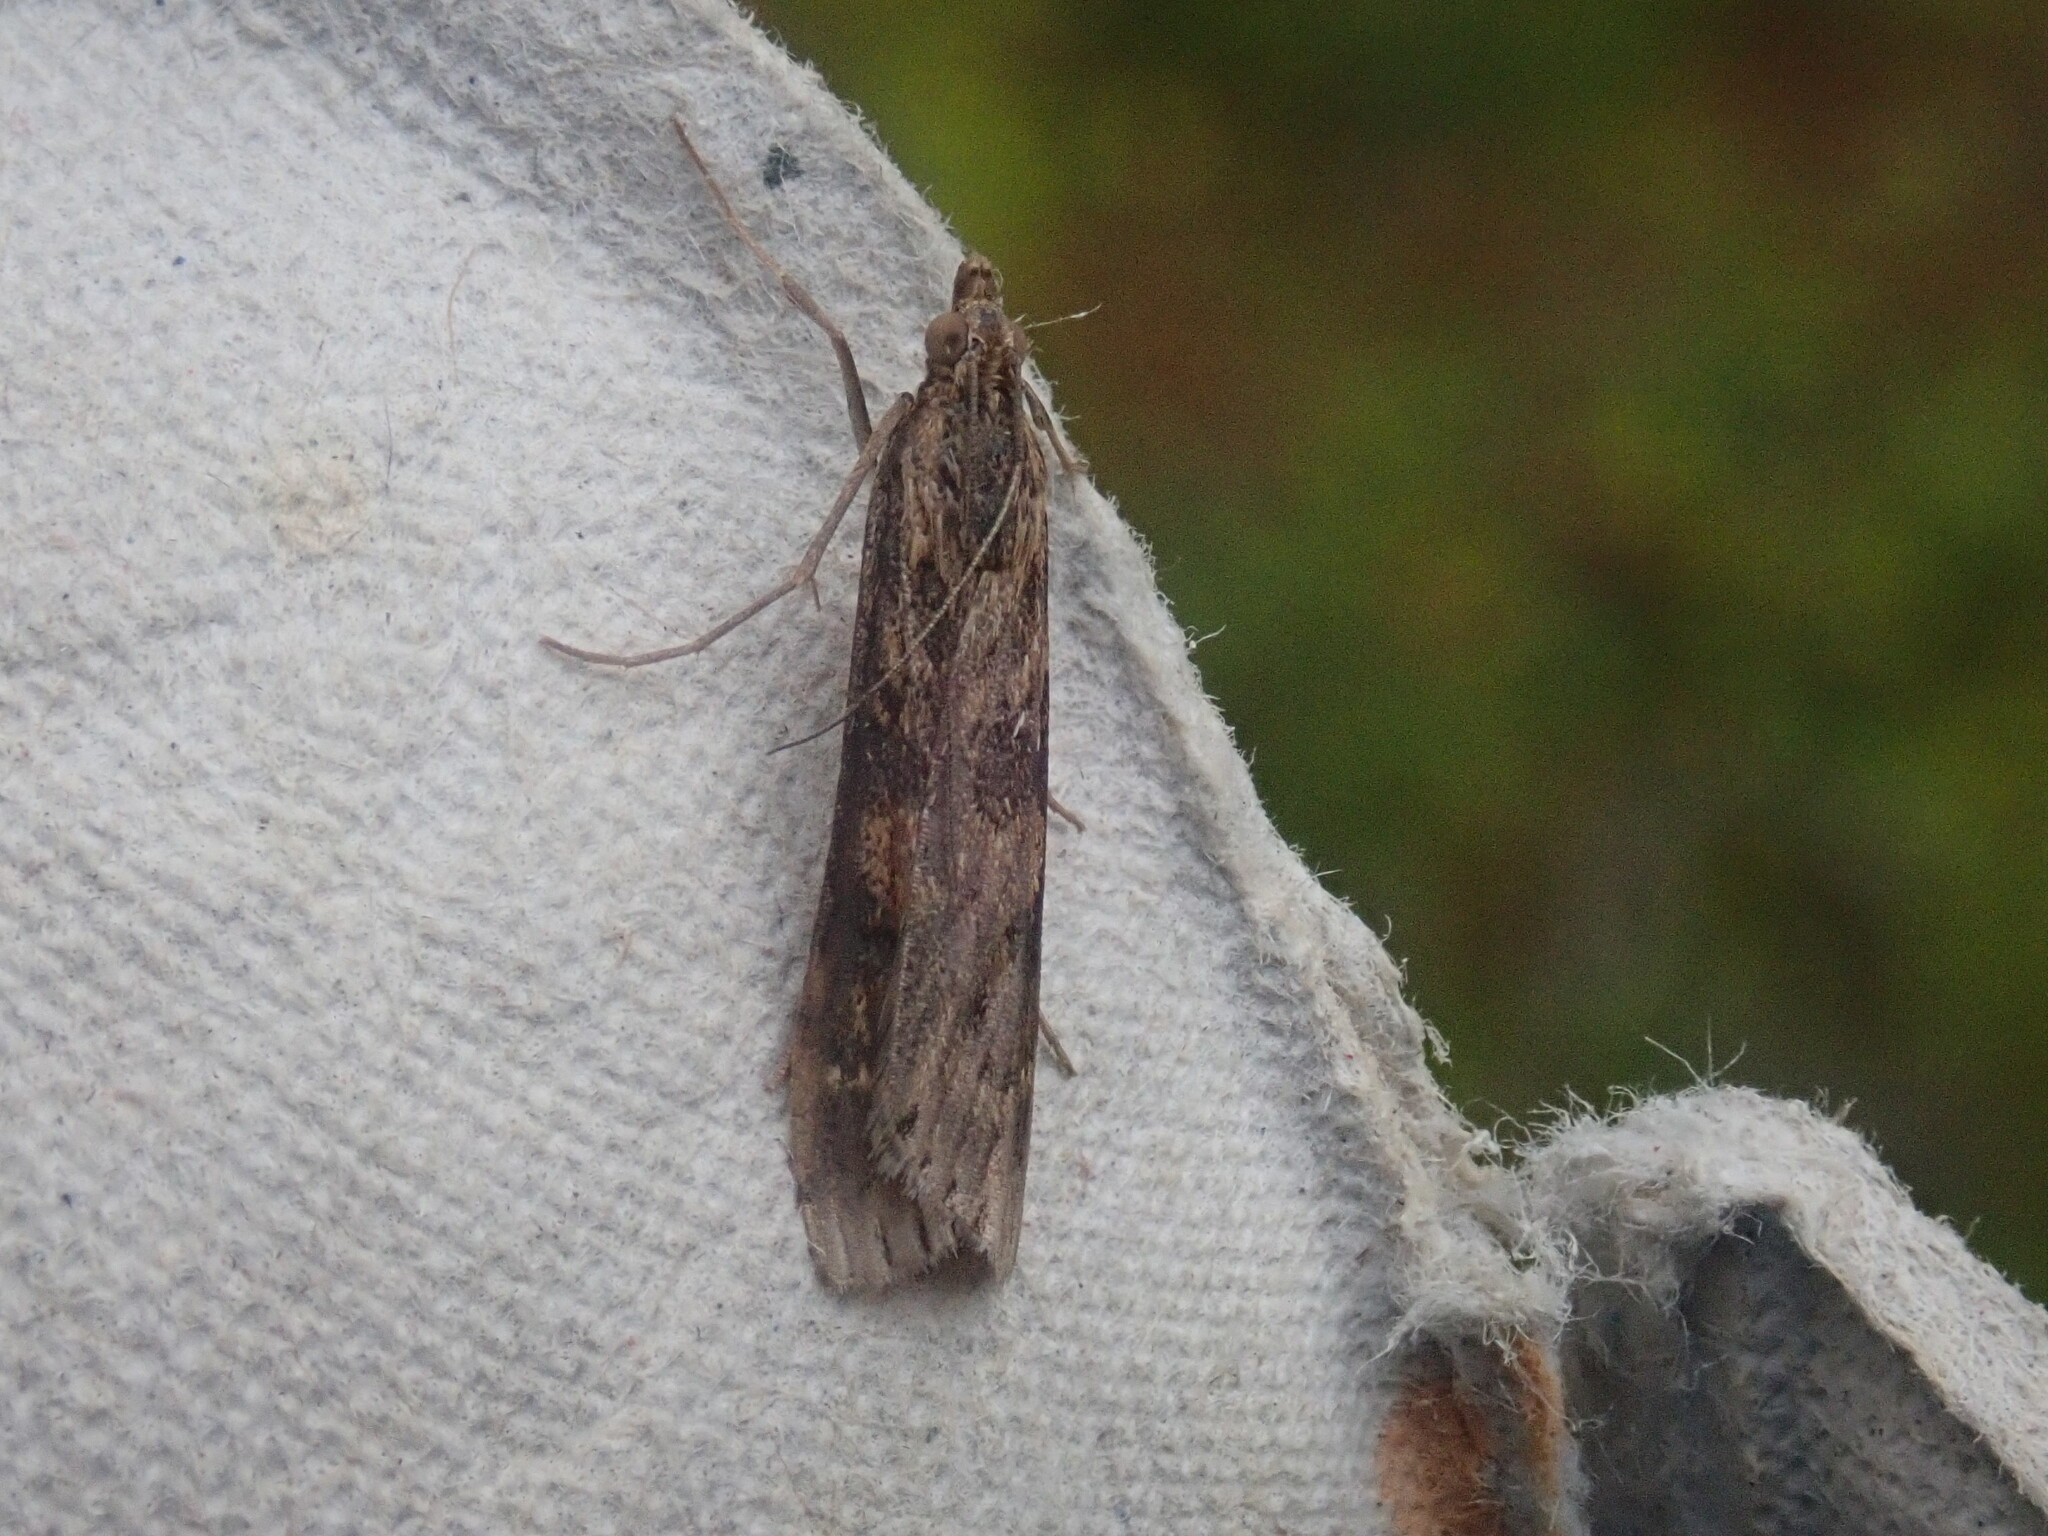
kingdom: Animalia
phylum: Arthropoda
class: Insecta
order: Lepidoptera
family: Crambidae
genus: Nomophila
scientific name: Nomophila nearctica
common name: American rush veneer
